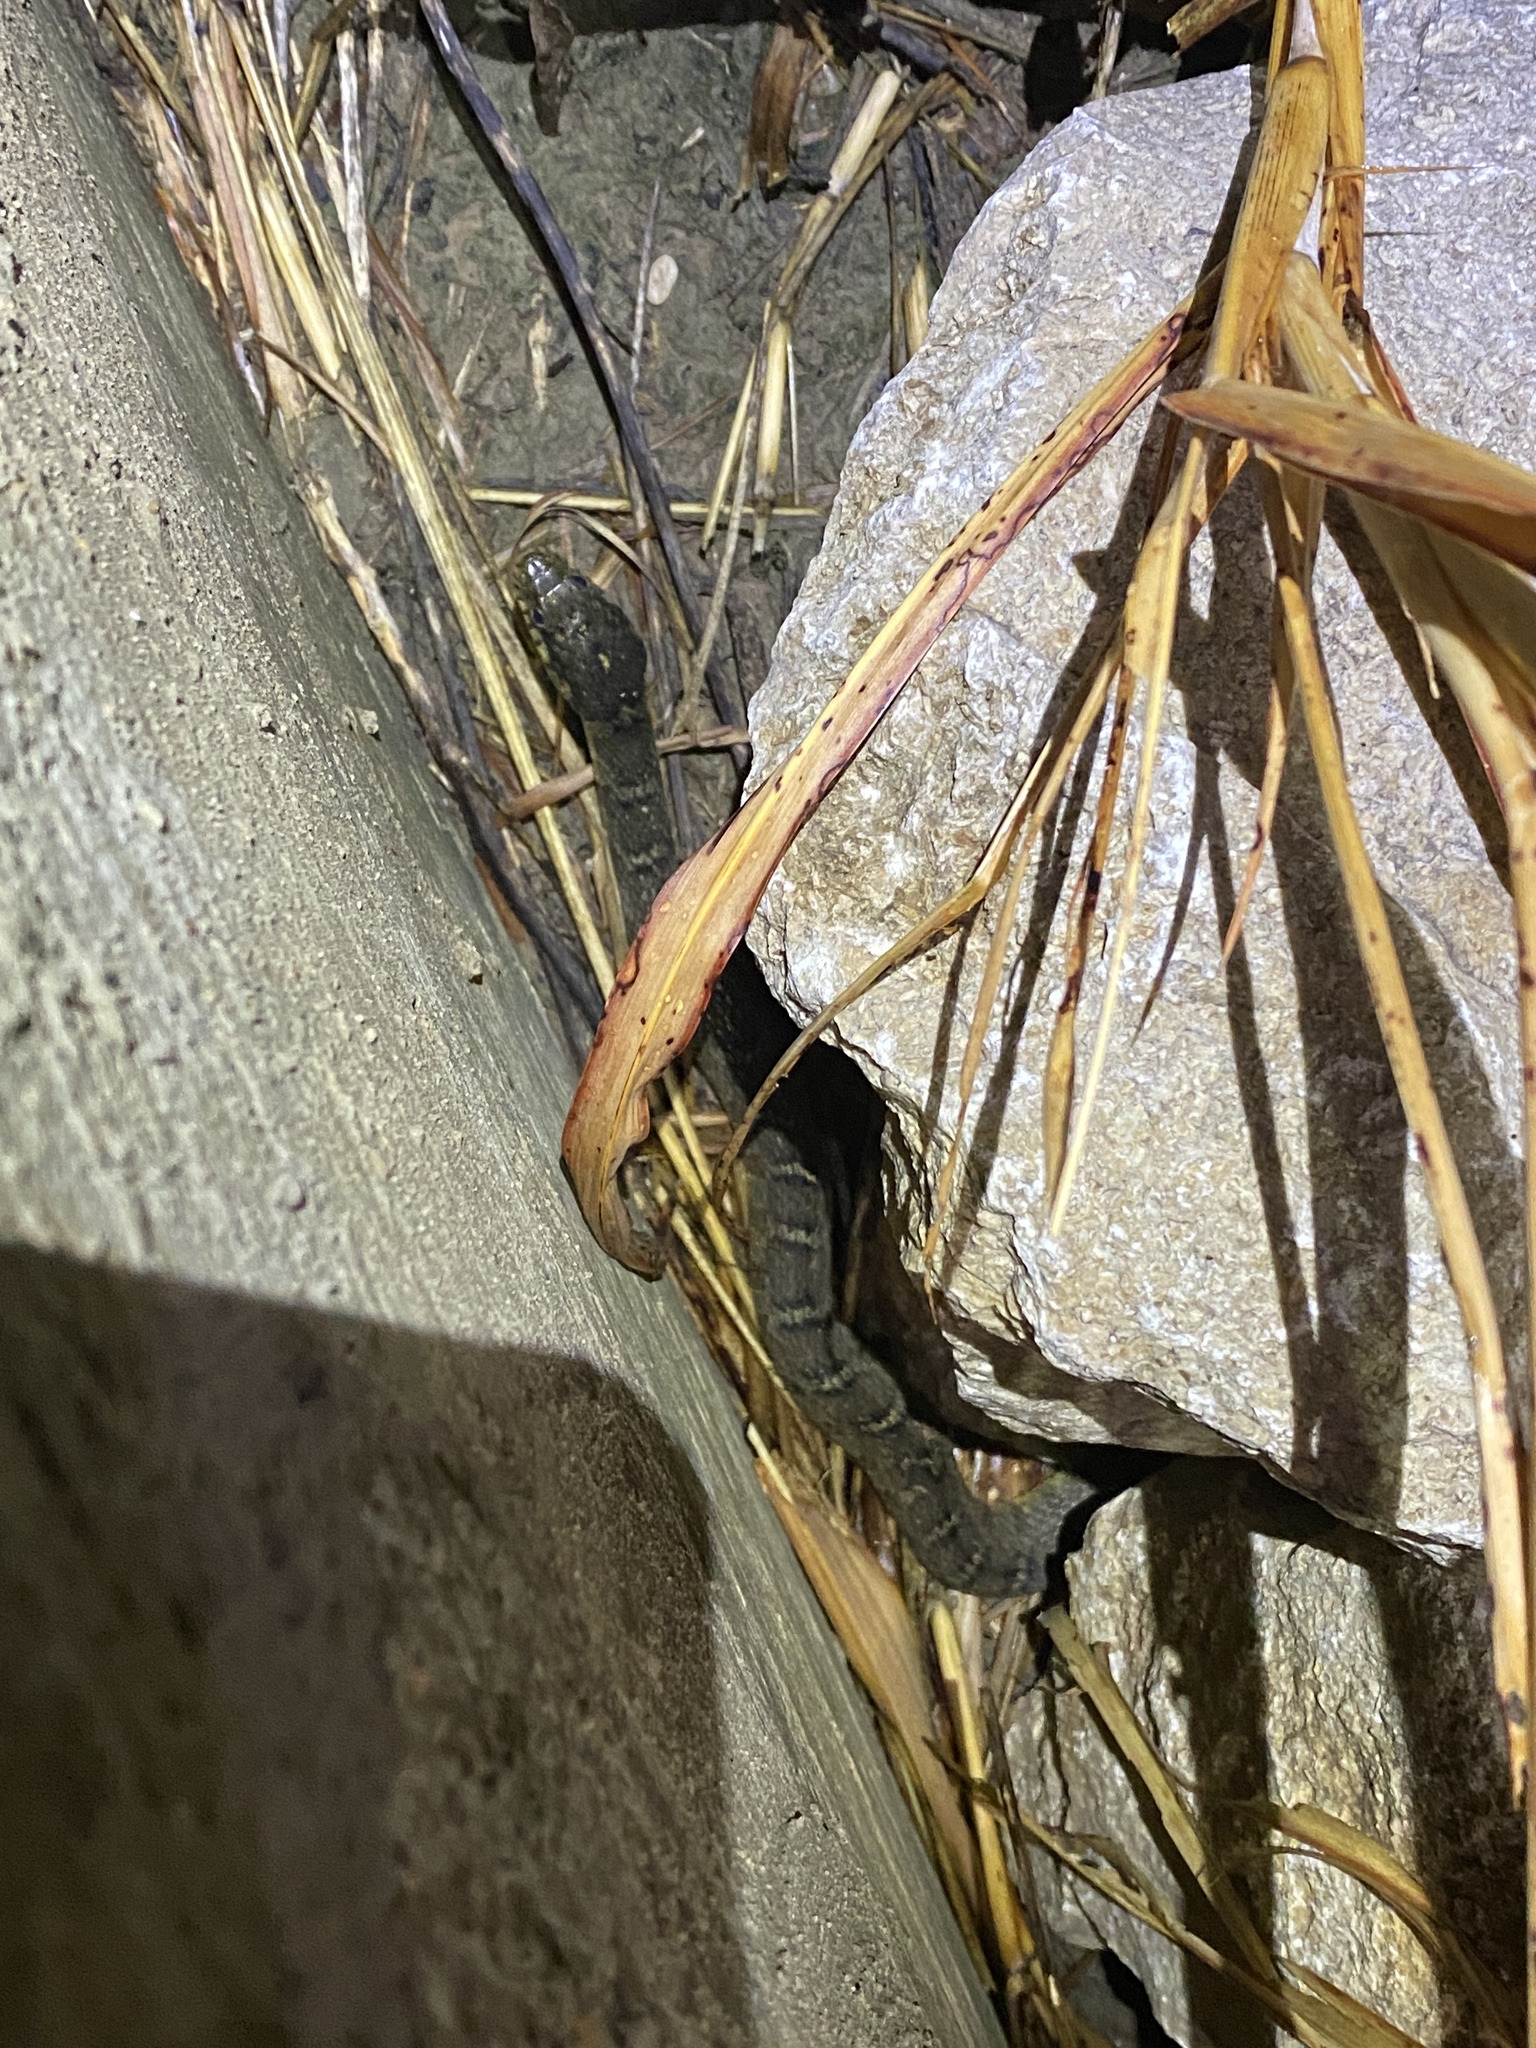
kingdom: Animalia
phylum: Chordata
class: Squamata
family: Colubridae
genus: Nerodia
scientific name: Nerodia erythrogaster
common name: Plainbelly water snake
